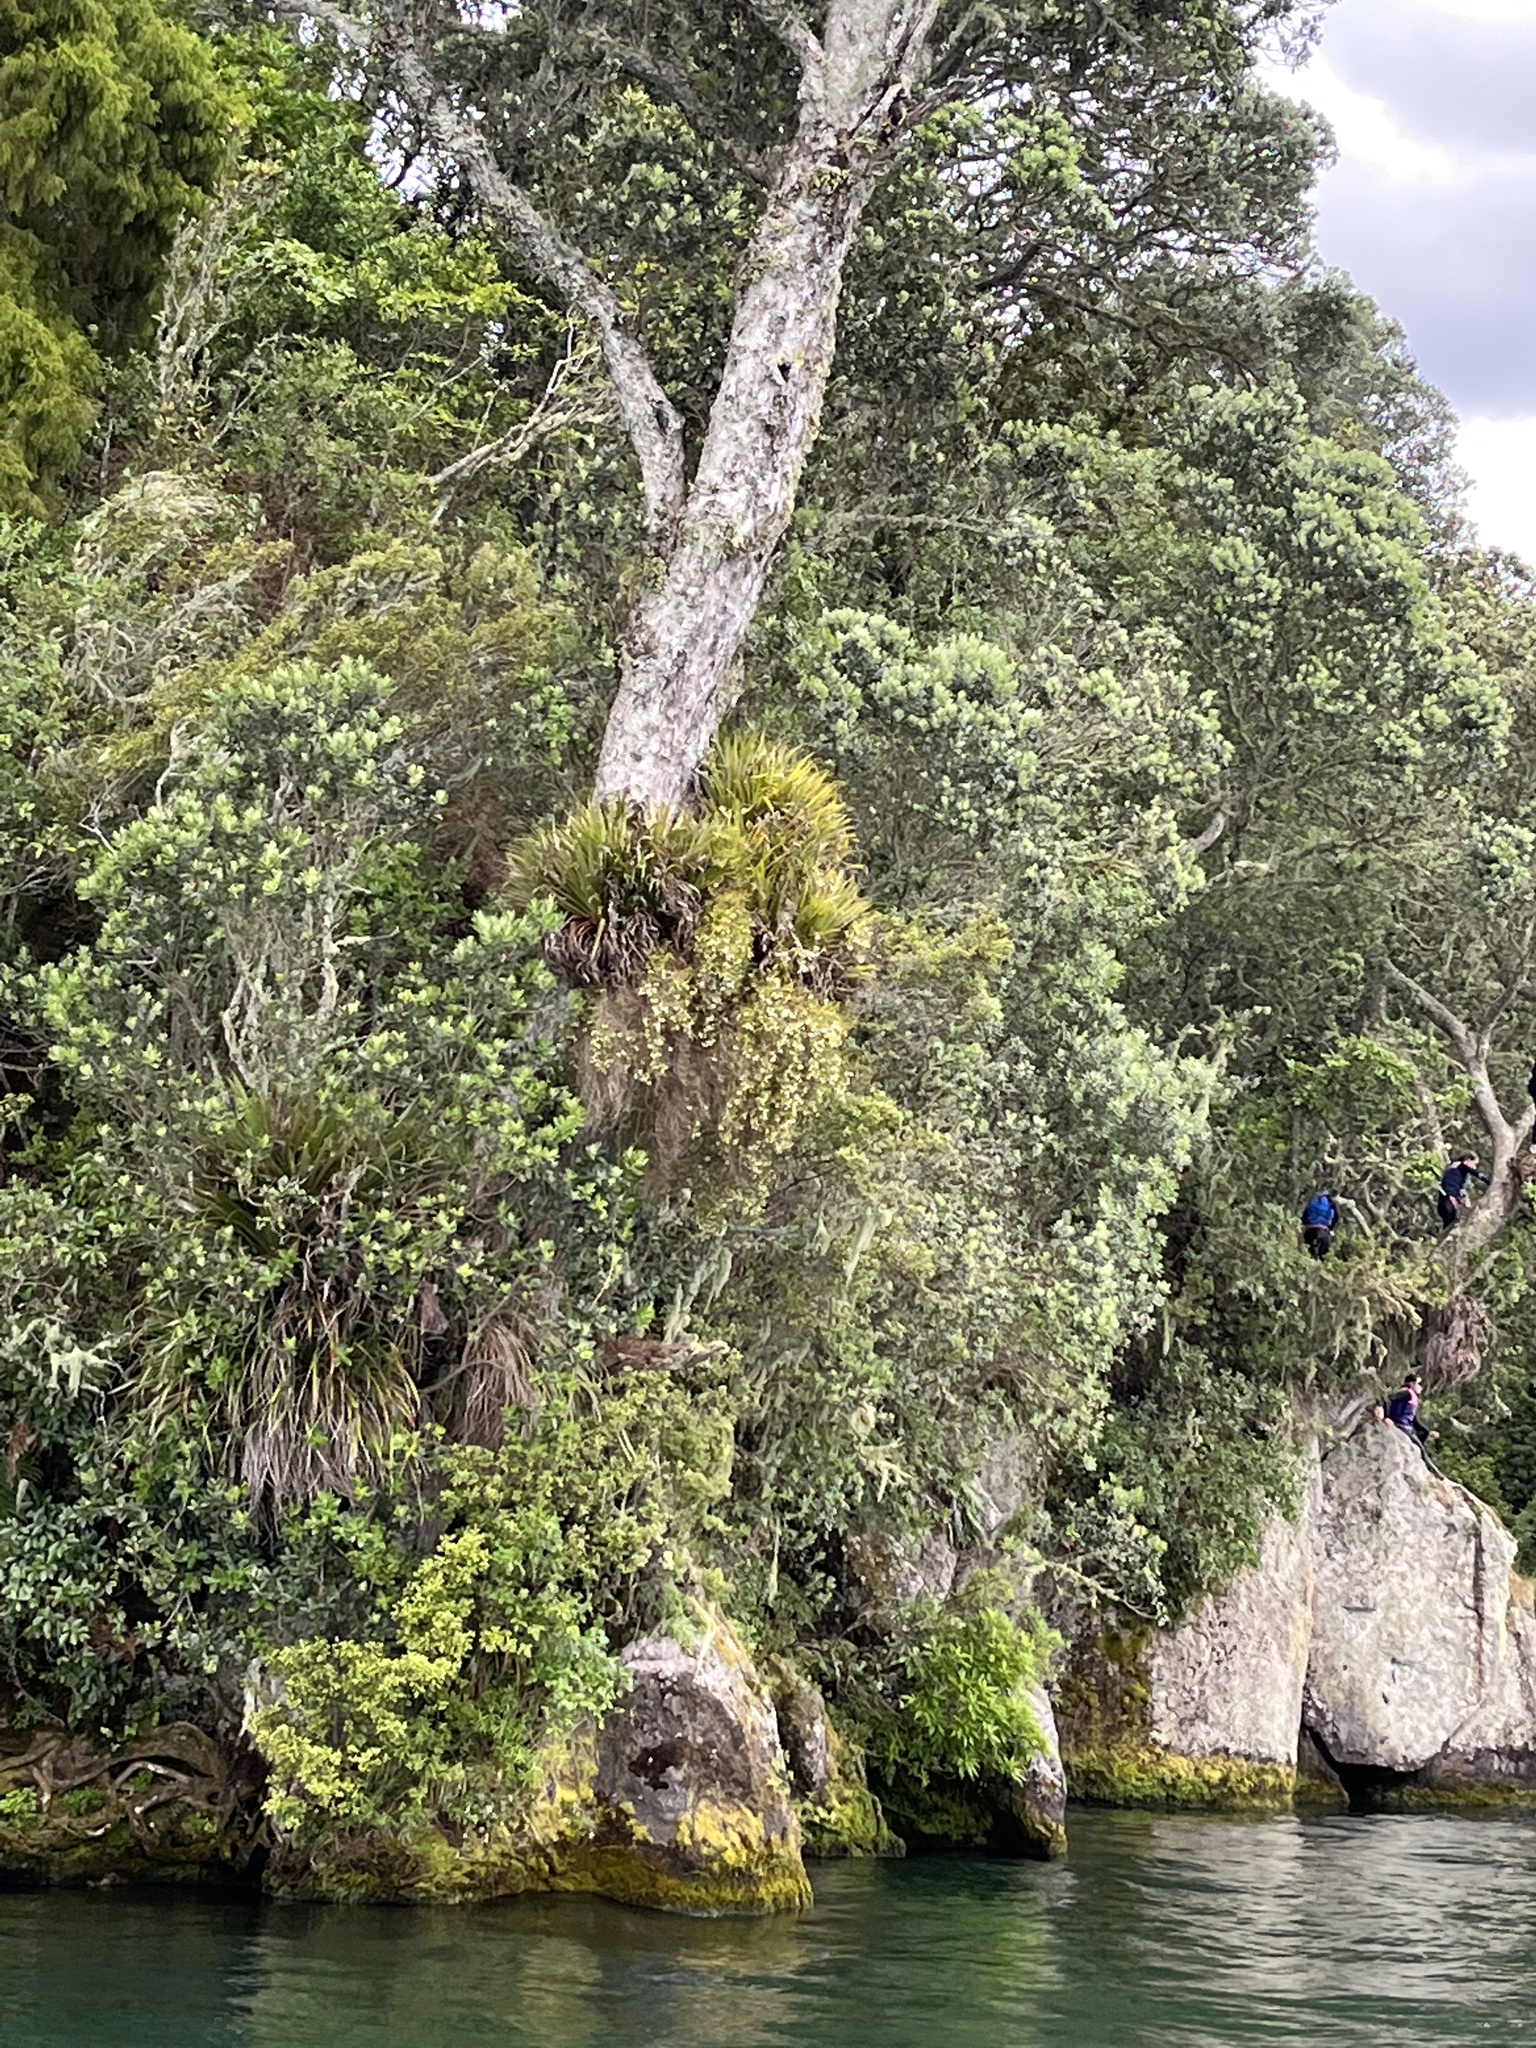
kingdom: Plantae
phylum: Tracheophyta
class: Liliopsida
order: Asparagales
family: Orchidaceae
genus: Dendrobium
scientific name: Dendrobium cunninghamii
